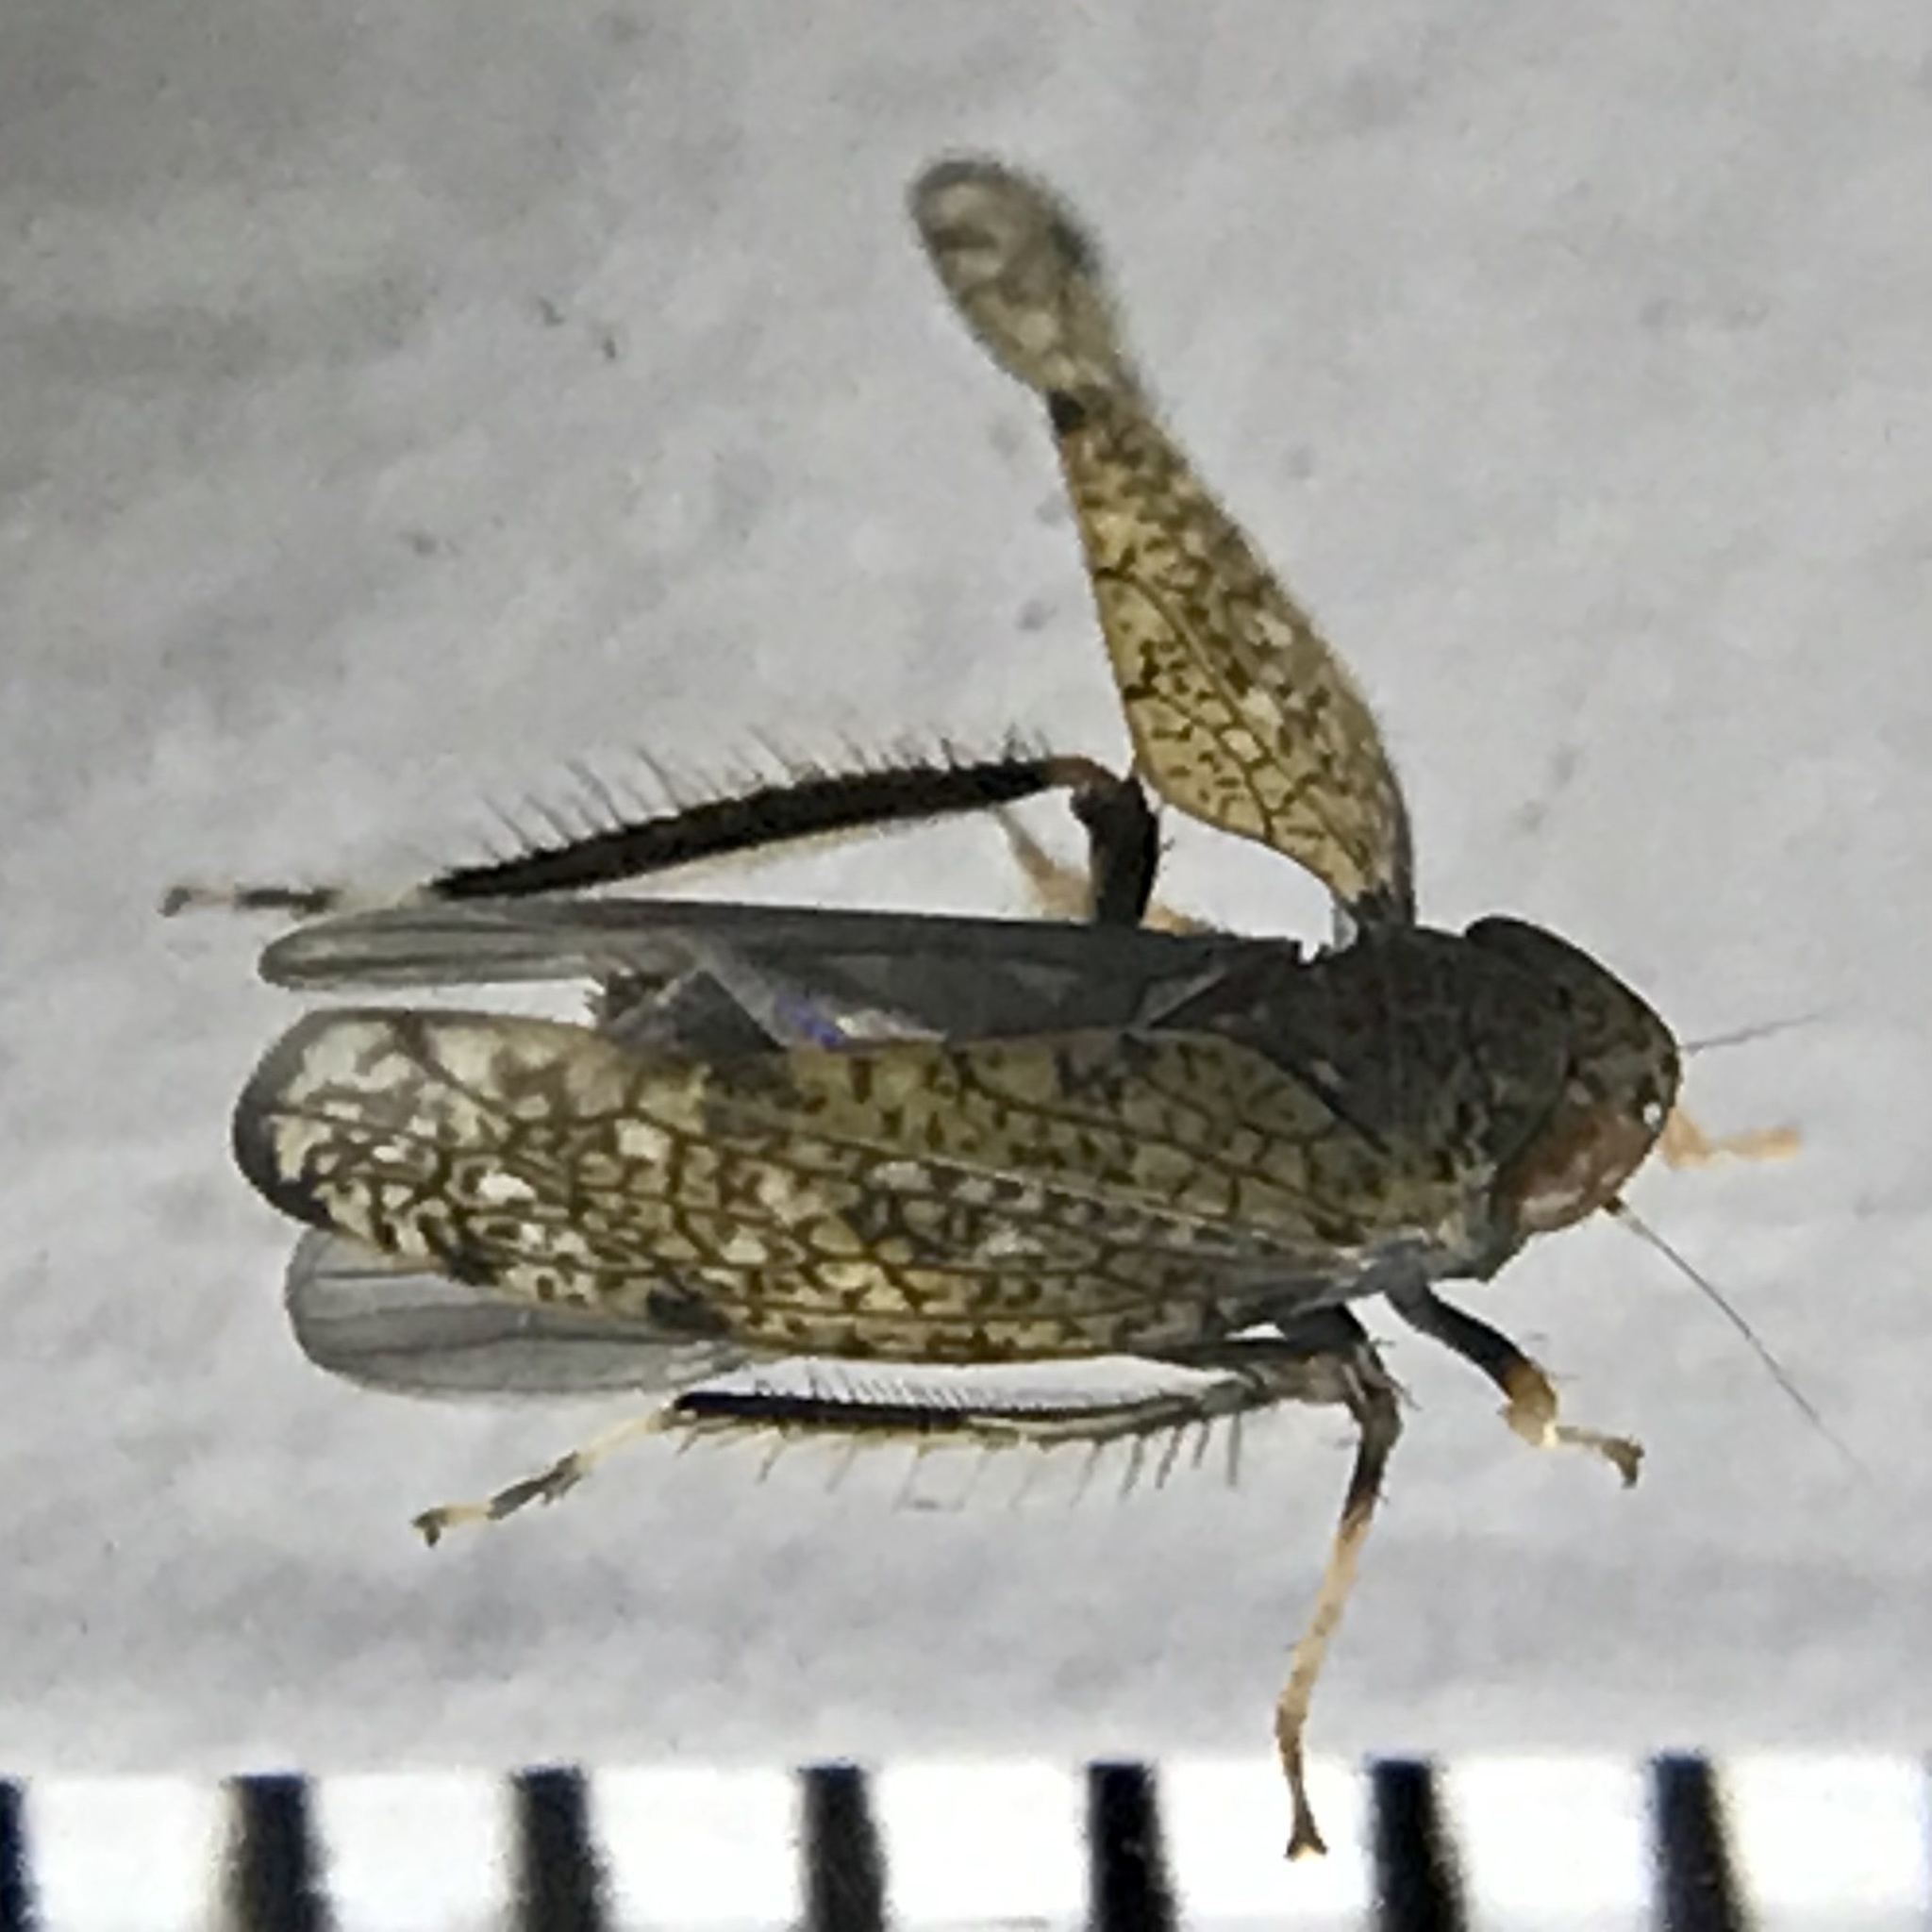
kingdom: Animalia
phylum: Arthropoda
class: Insecta
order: Hemiptera
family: Cicadellidae
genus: Orientus
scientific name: Orientus ishidae
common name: Japanese leafhopper
